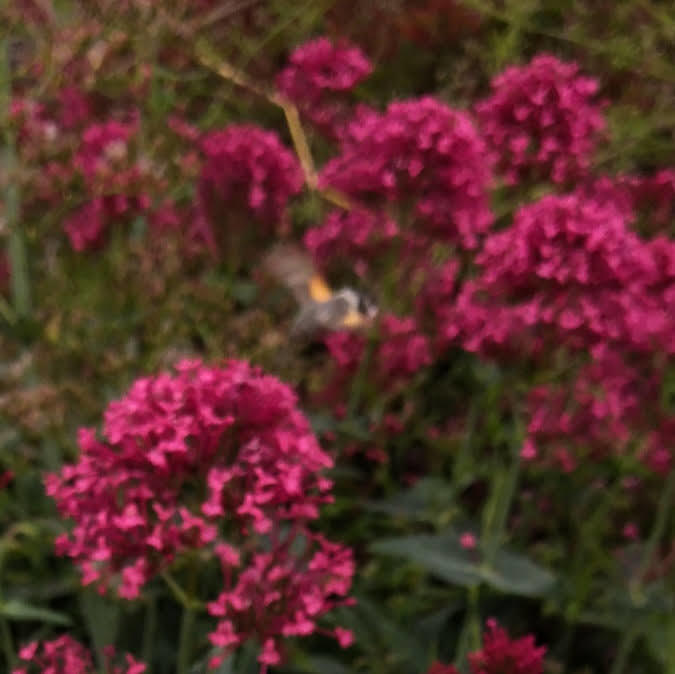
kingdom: Animalia
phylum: Arthropoda
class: Insecta
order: Lepidoptera
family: Sphingidae
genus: Macroglossum
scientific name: Macroglossum stellatarum
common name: Humming-bird hawk-moth
